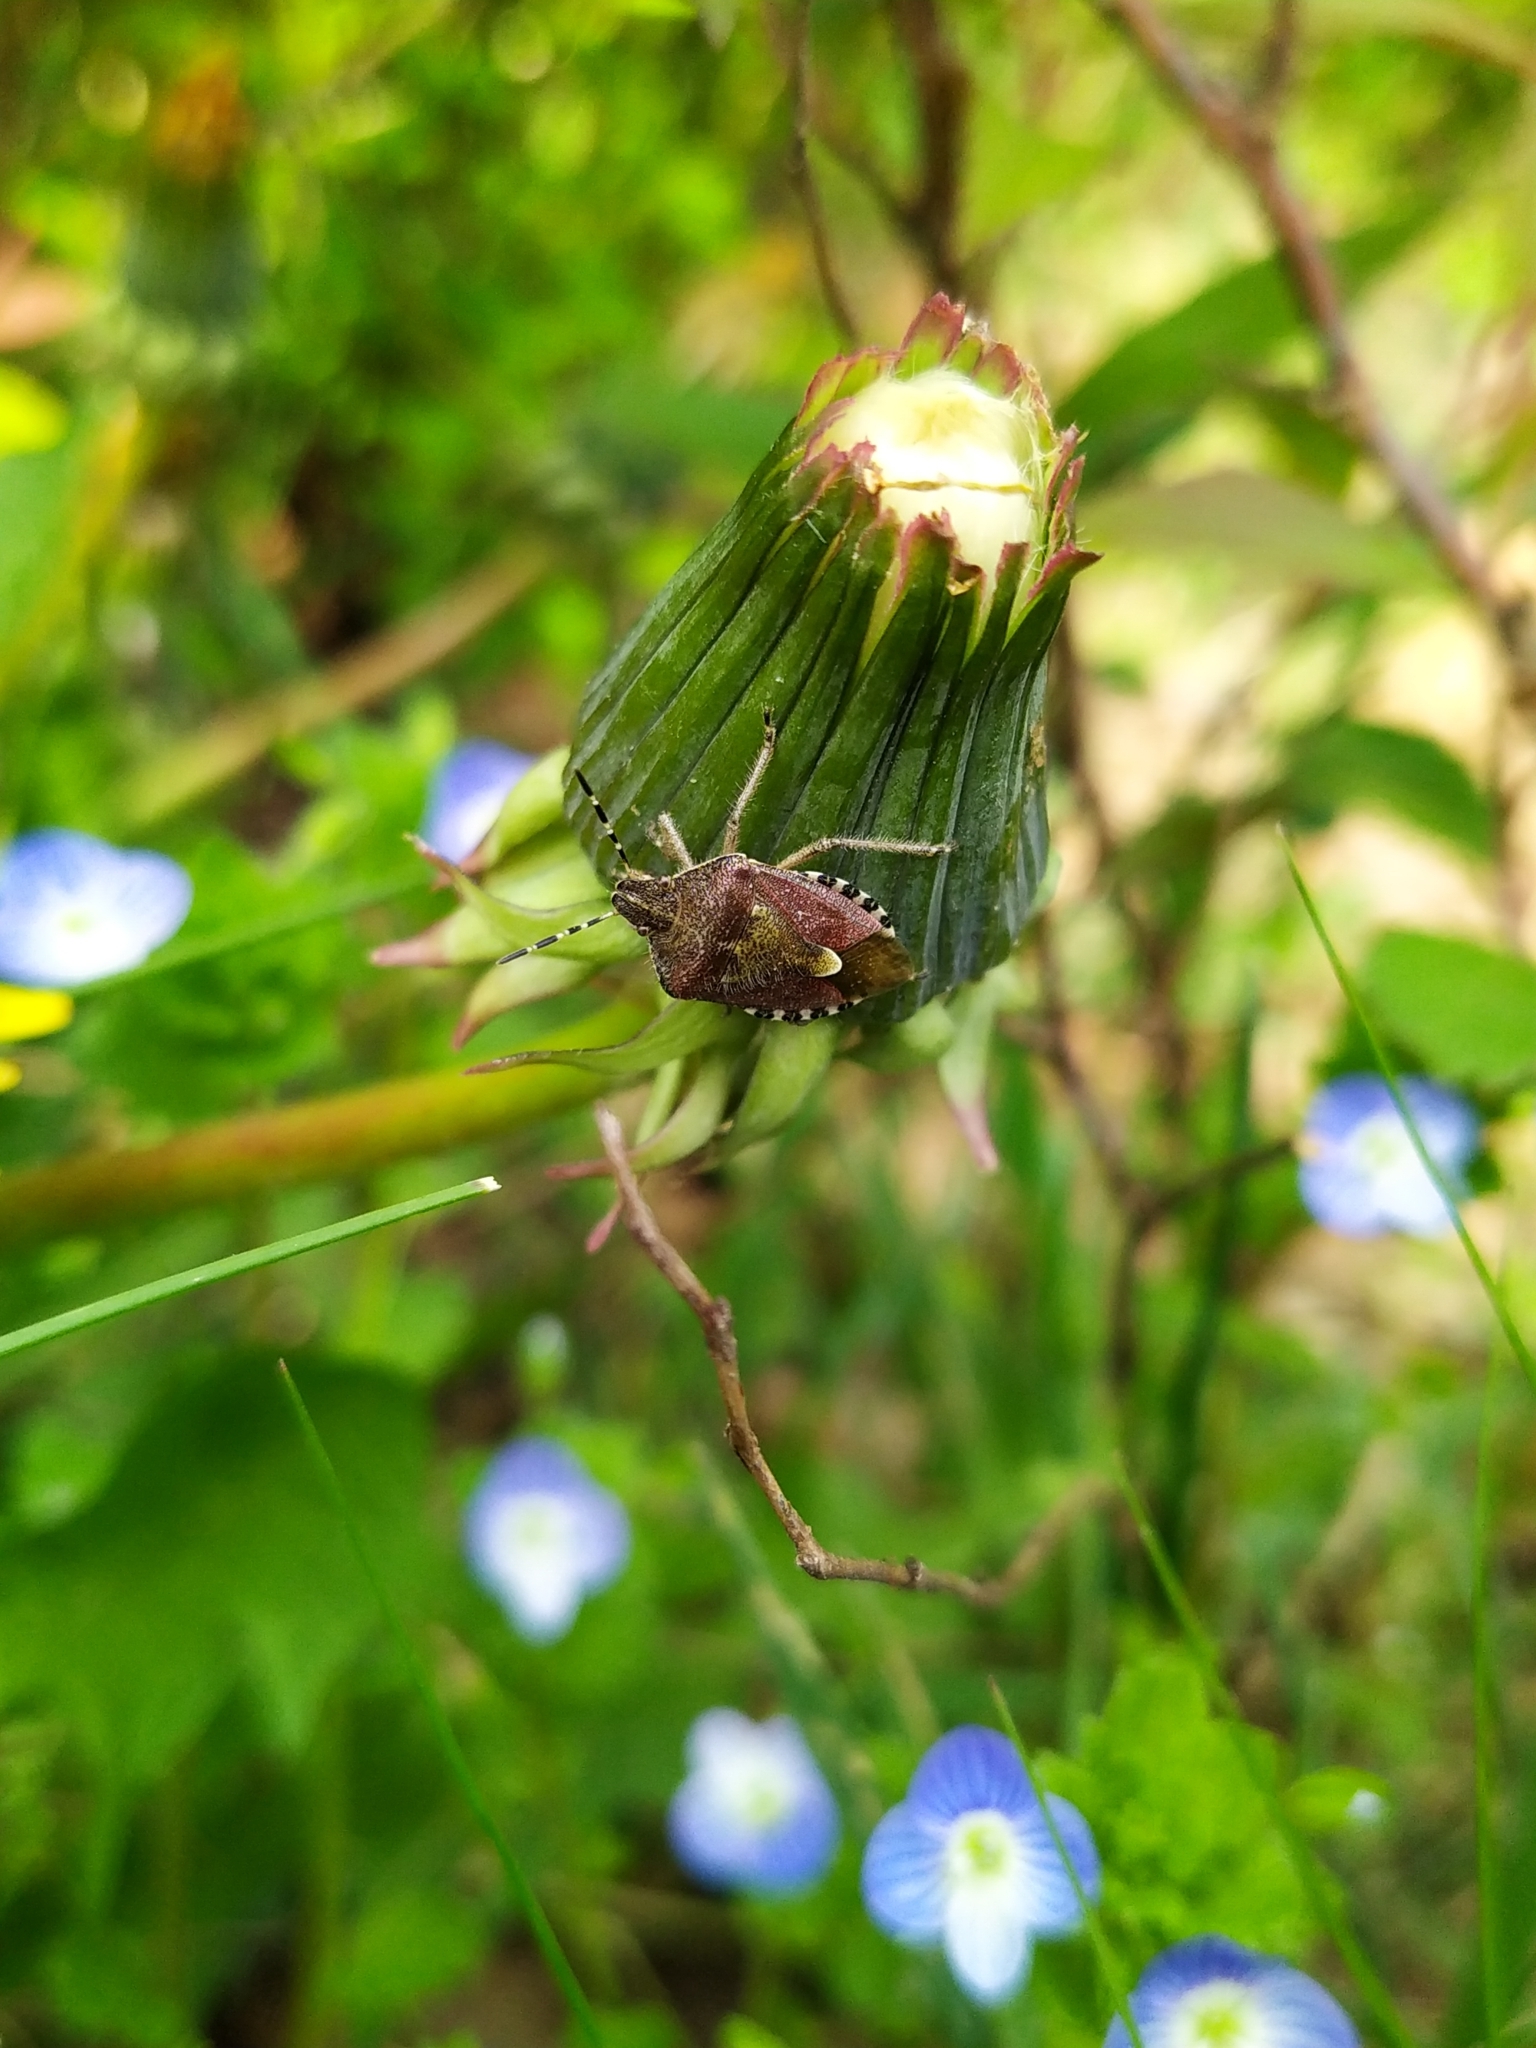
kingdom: Animalia
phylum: Arthropoda
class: Insecta
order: Hemiptera
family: Pentatomidae
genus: Dolycoris
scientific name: Dolycoris baccarum
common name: Sloe bug
